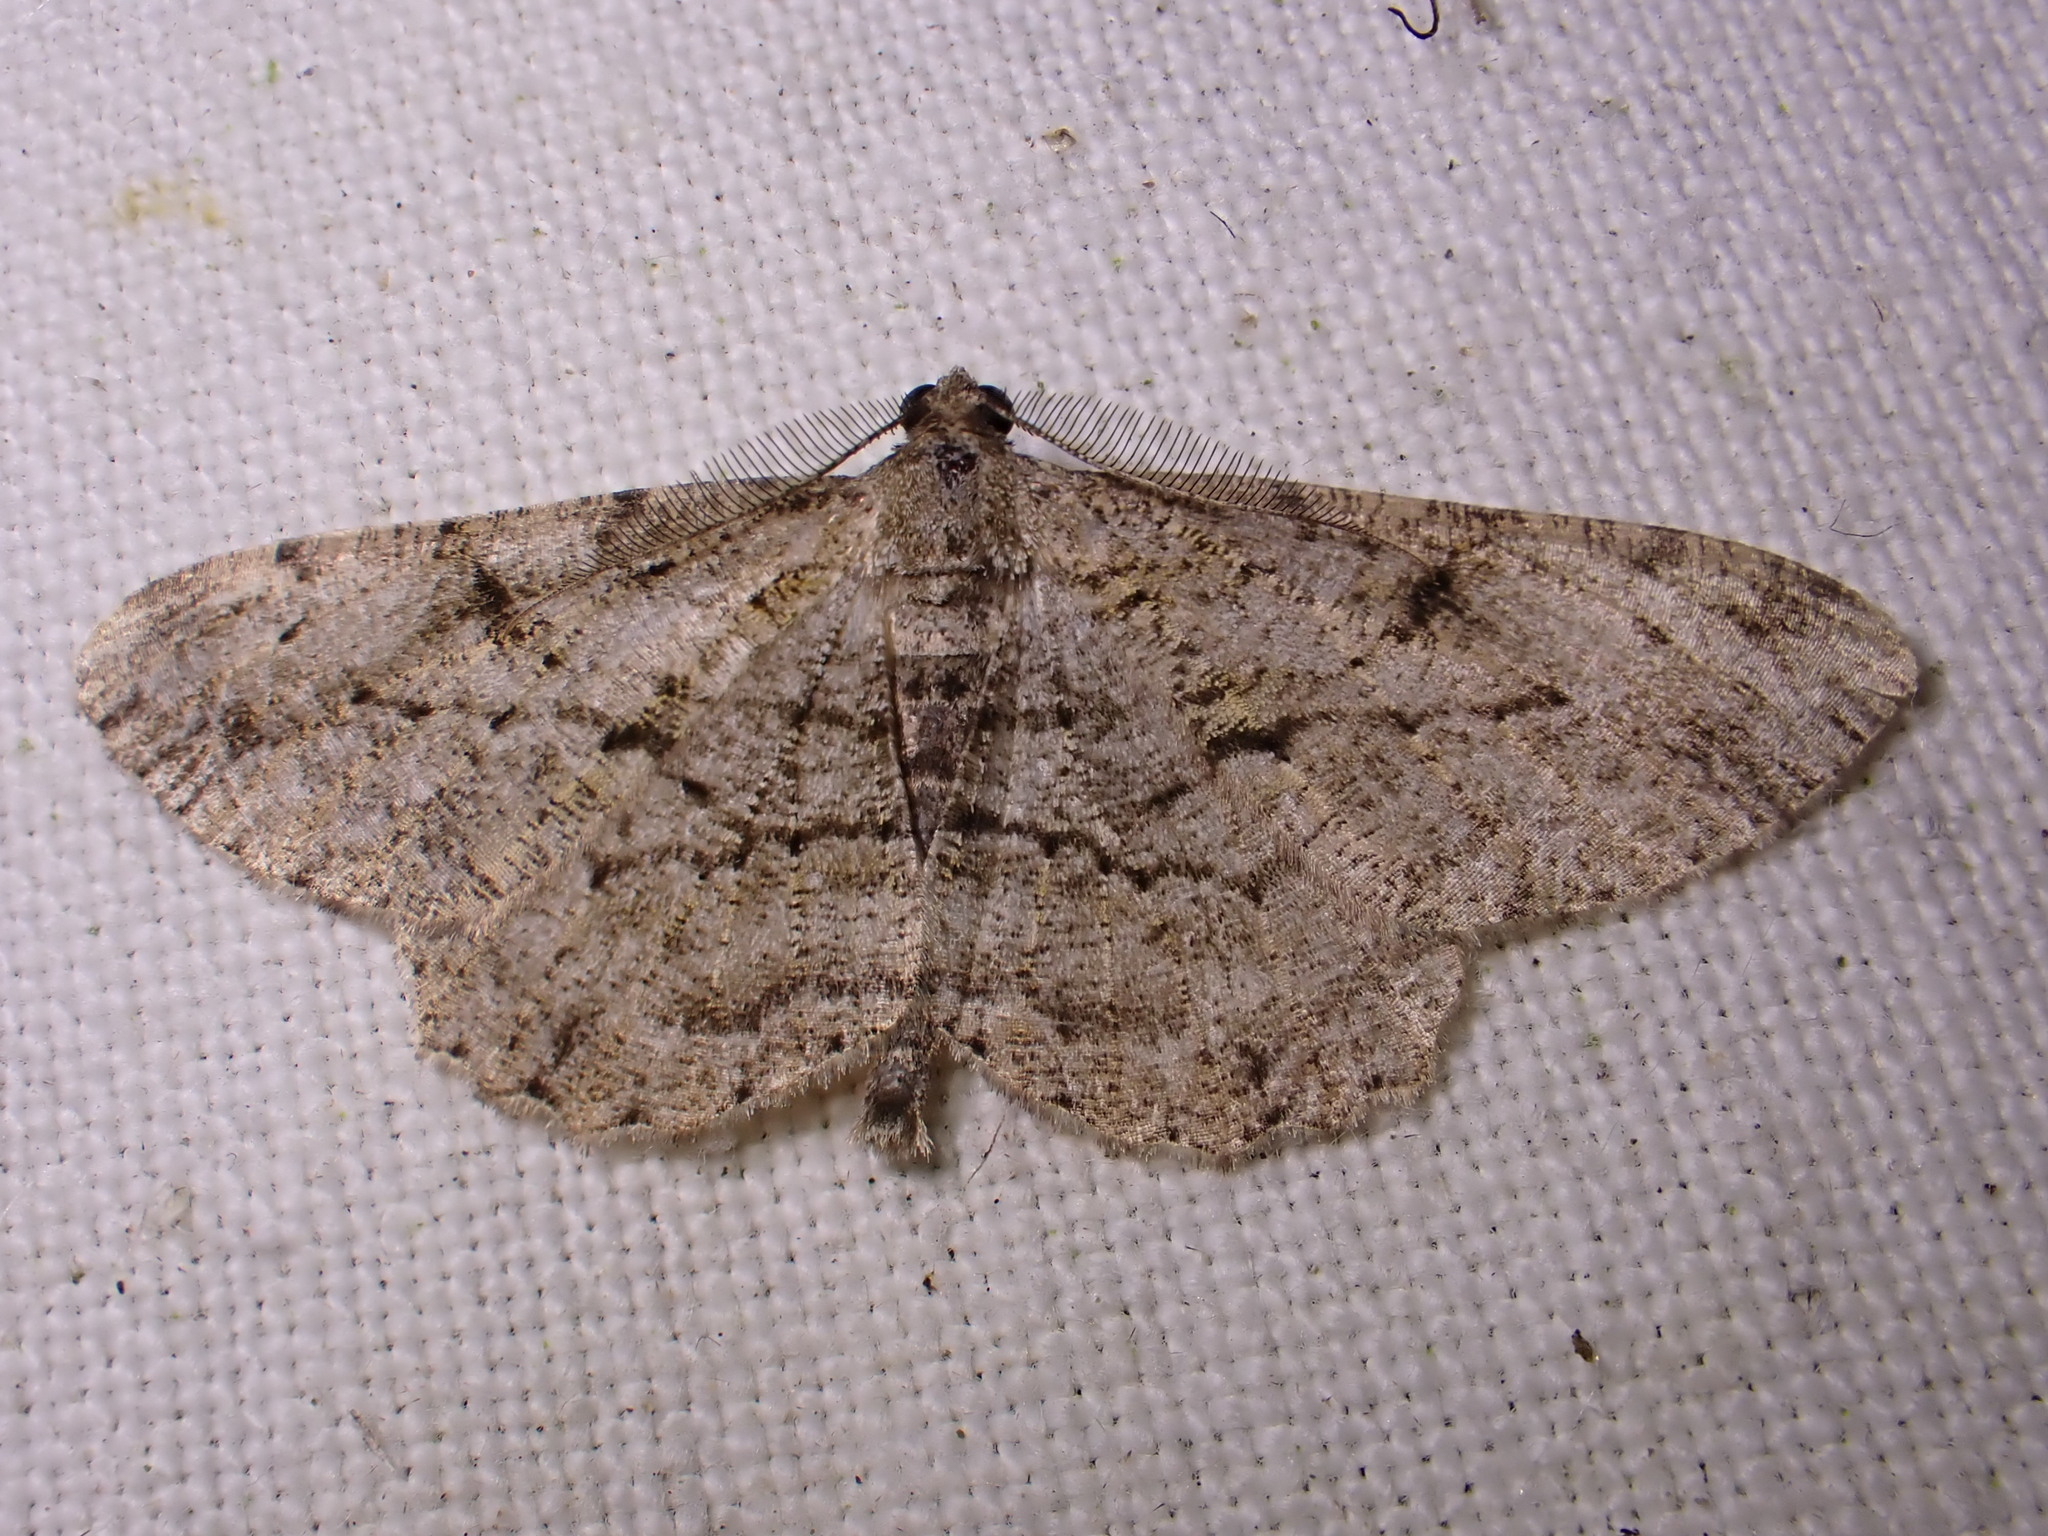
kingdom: Animalia
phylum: Arthropoda
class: Insecta
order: Lepidoptera
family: Geometridae
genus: Peribatodes
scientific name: Peribatodes rhomboidaria
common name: Willow beauty
